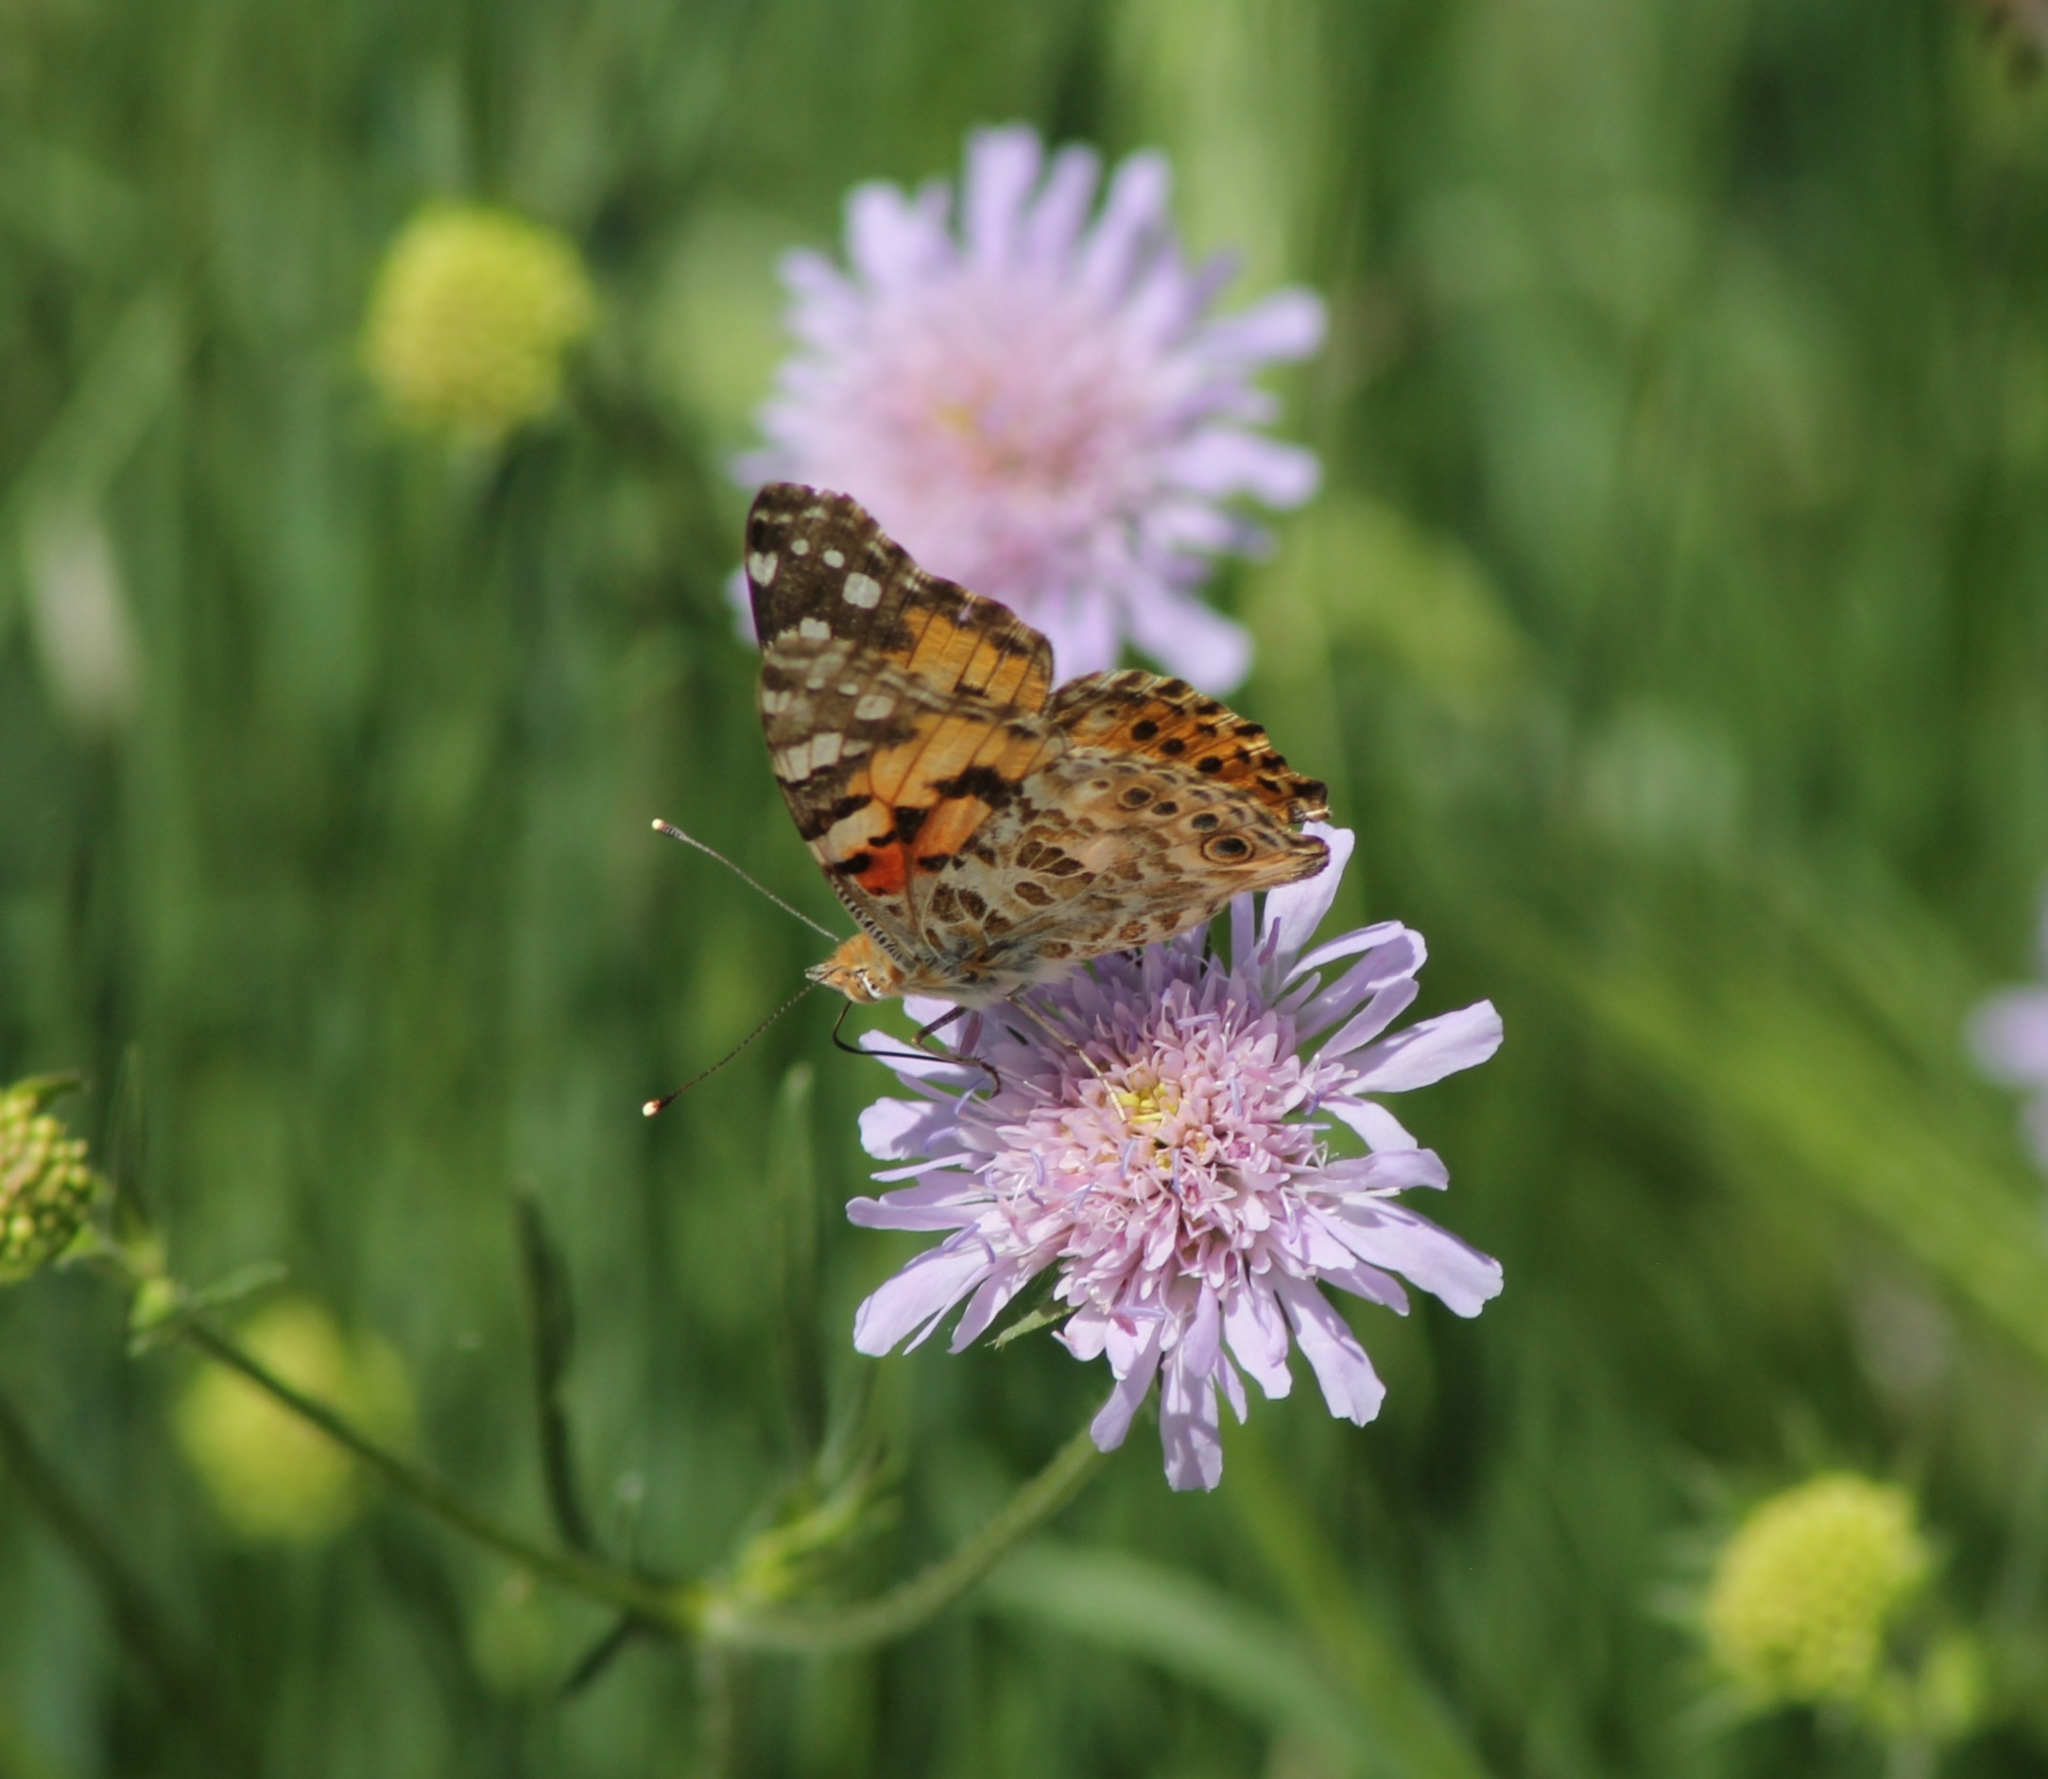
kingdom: Animalia
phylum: Arthropoda
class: Insecta
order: Lepidoptera
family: Nymphalidae
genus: Vanessa
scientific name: Vanessa cardui
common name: Painted lady
